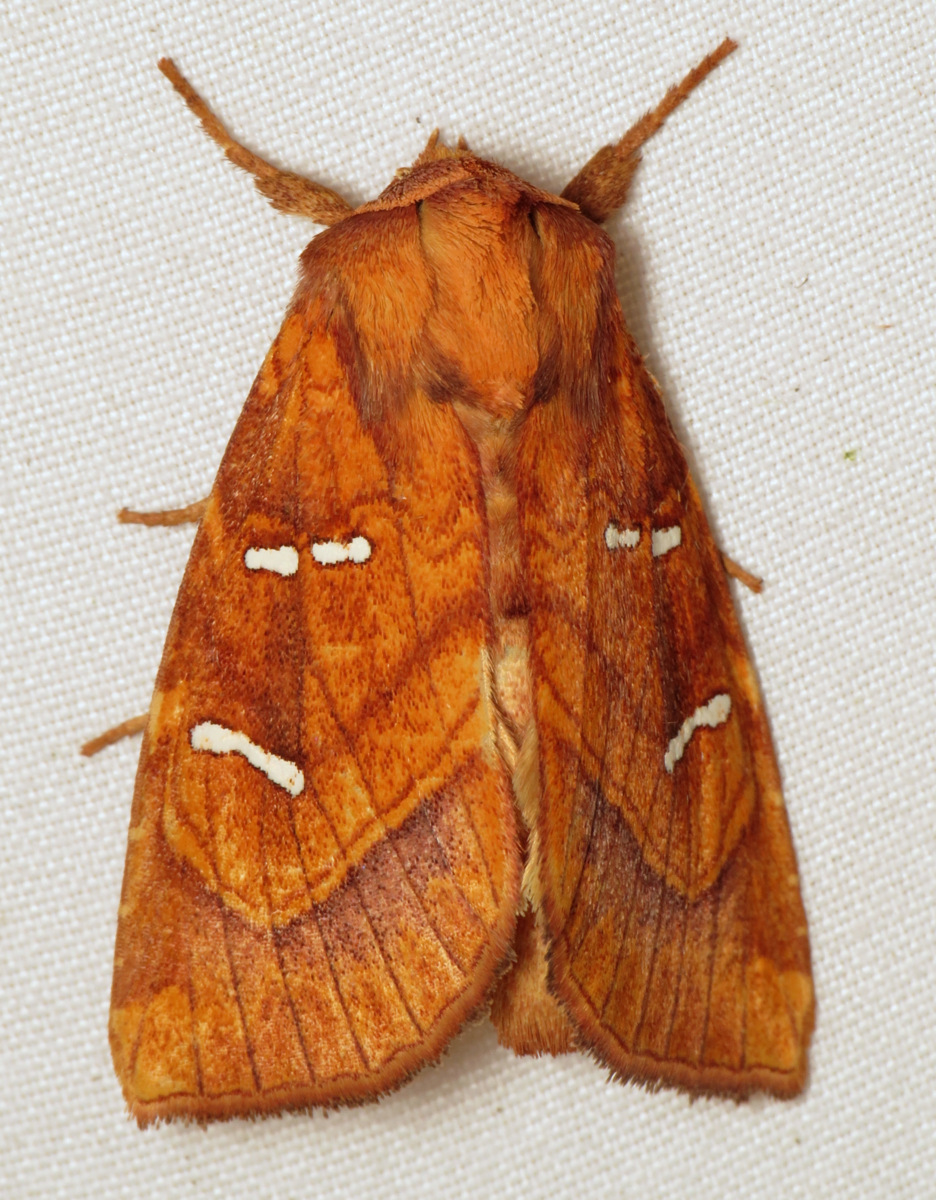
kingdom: Animalia
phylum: Arthropoda
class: Insecta
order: Lepidoptera
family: Noctuidae
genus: Papaipema
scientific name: Papaipema speciosissima
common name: Osmunda borer moth
